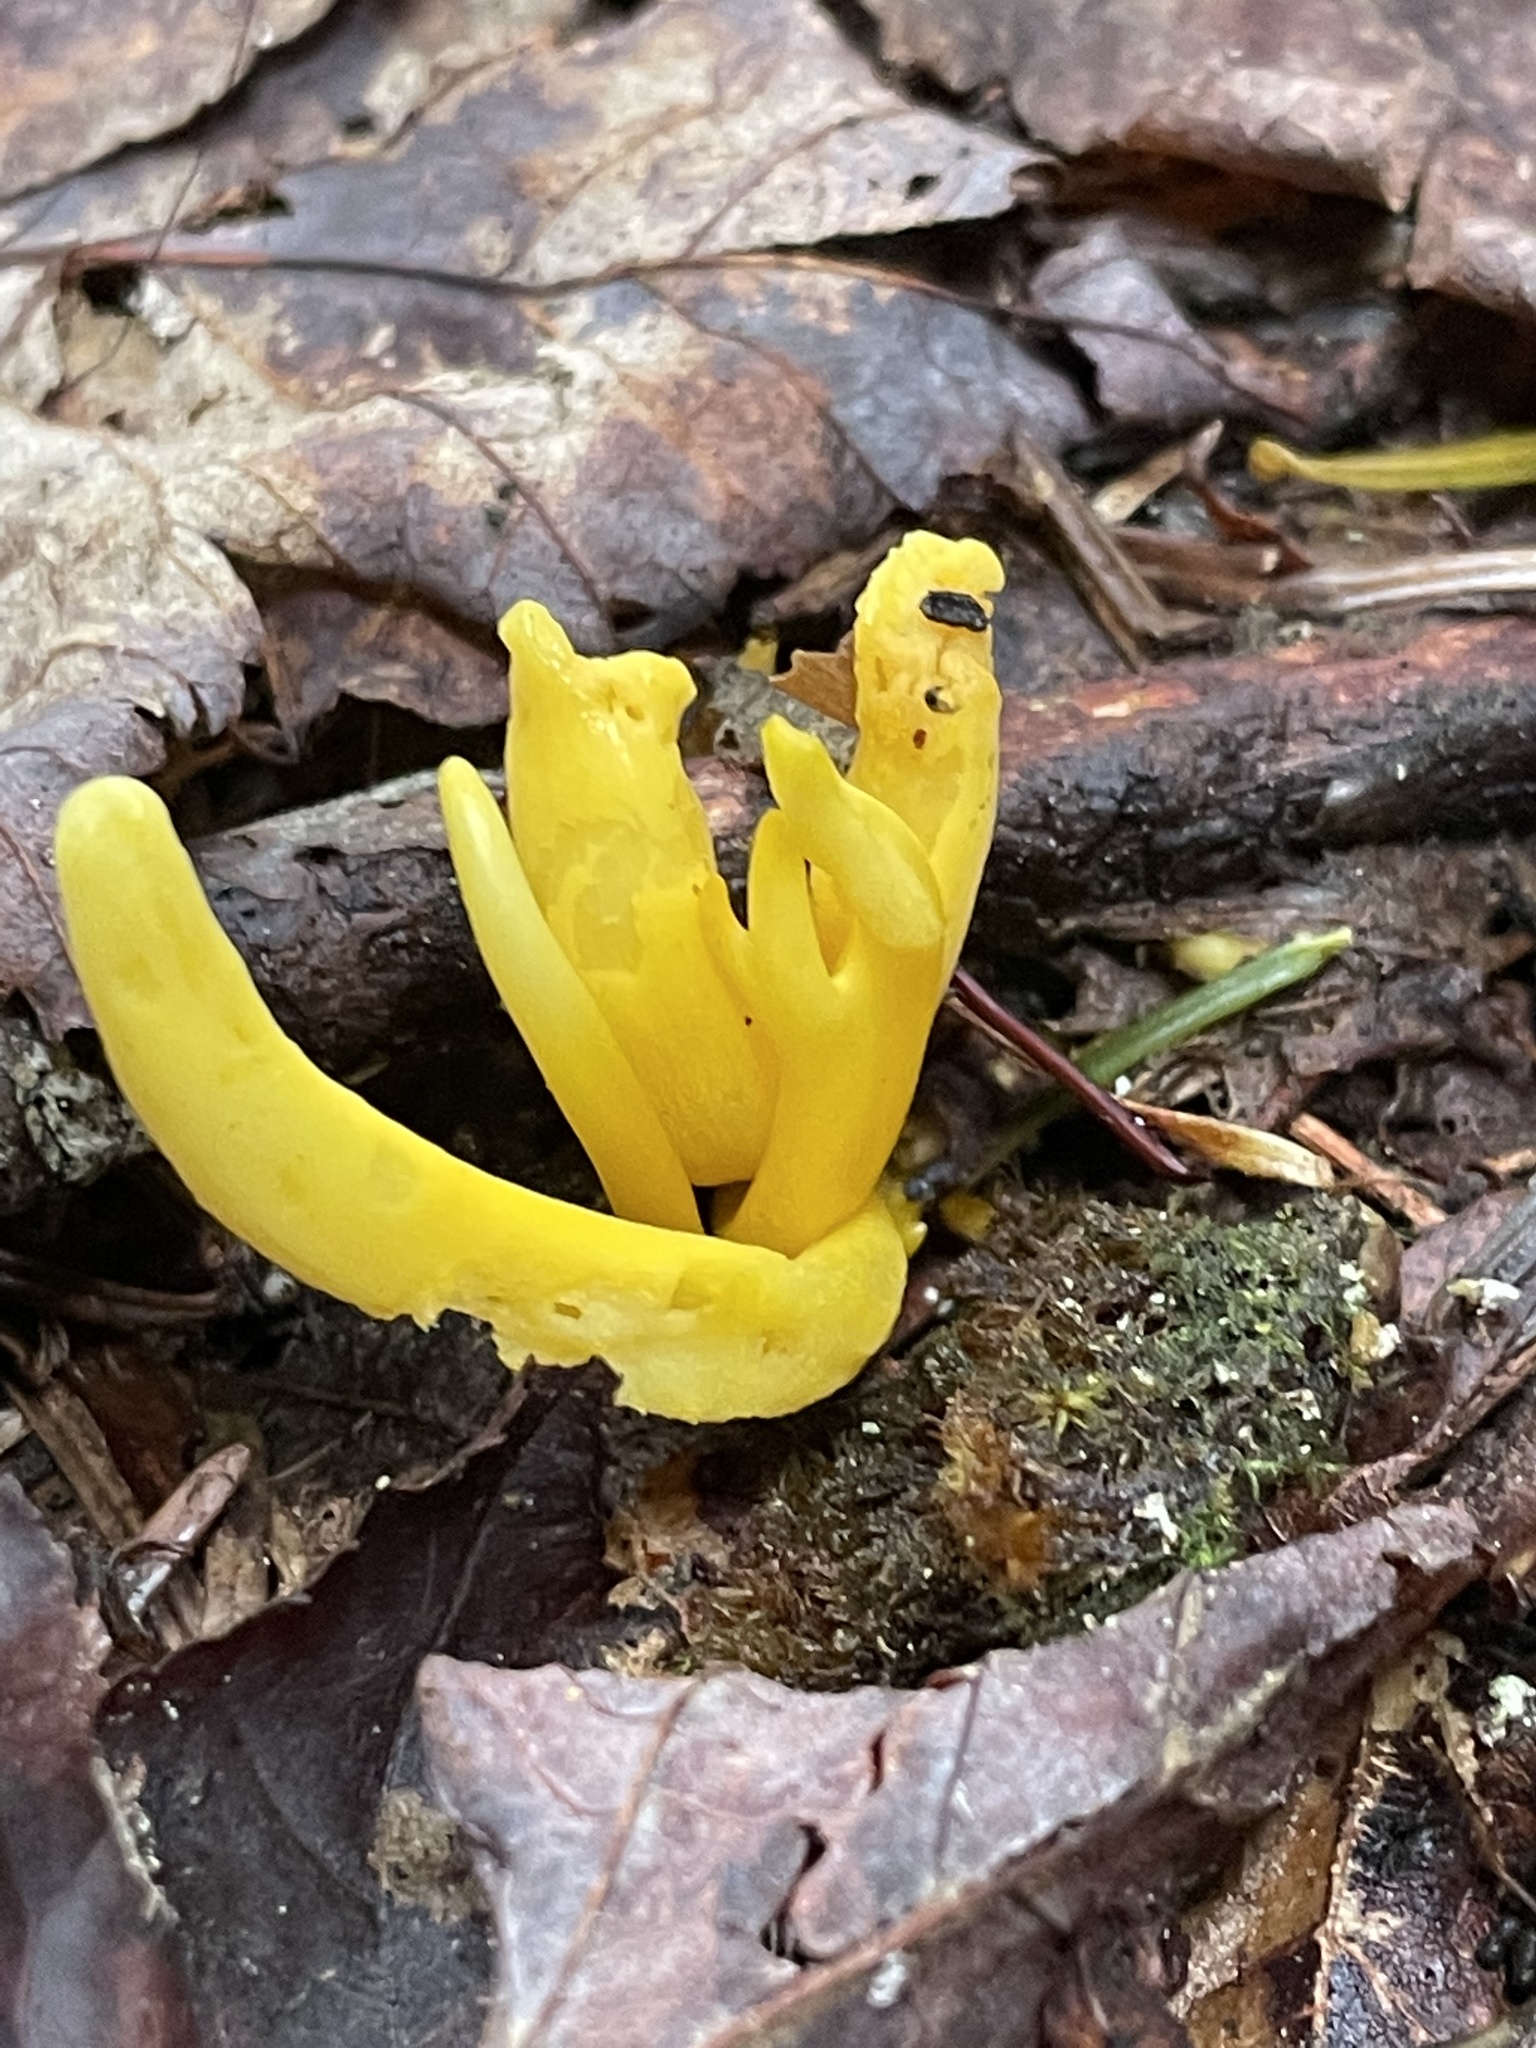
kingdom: Fungi
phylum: Basidiomycota
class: Agaricomycetes
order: Agaricales
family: Clavariaceae
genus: Clavulinopsis
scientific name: Clavulinopsis fusiformis
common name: Golden spindles
